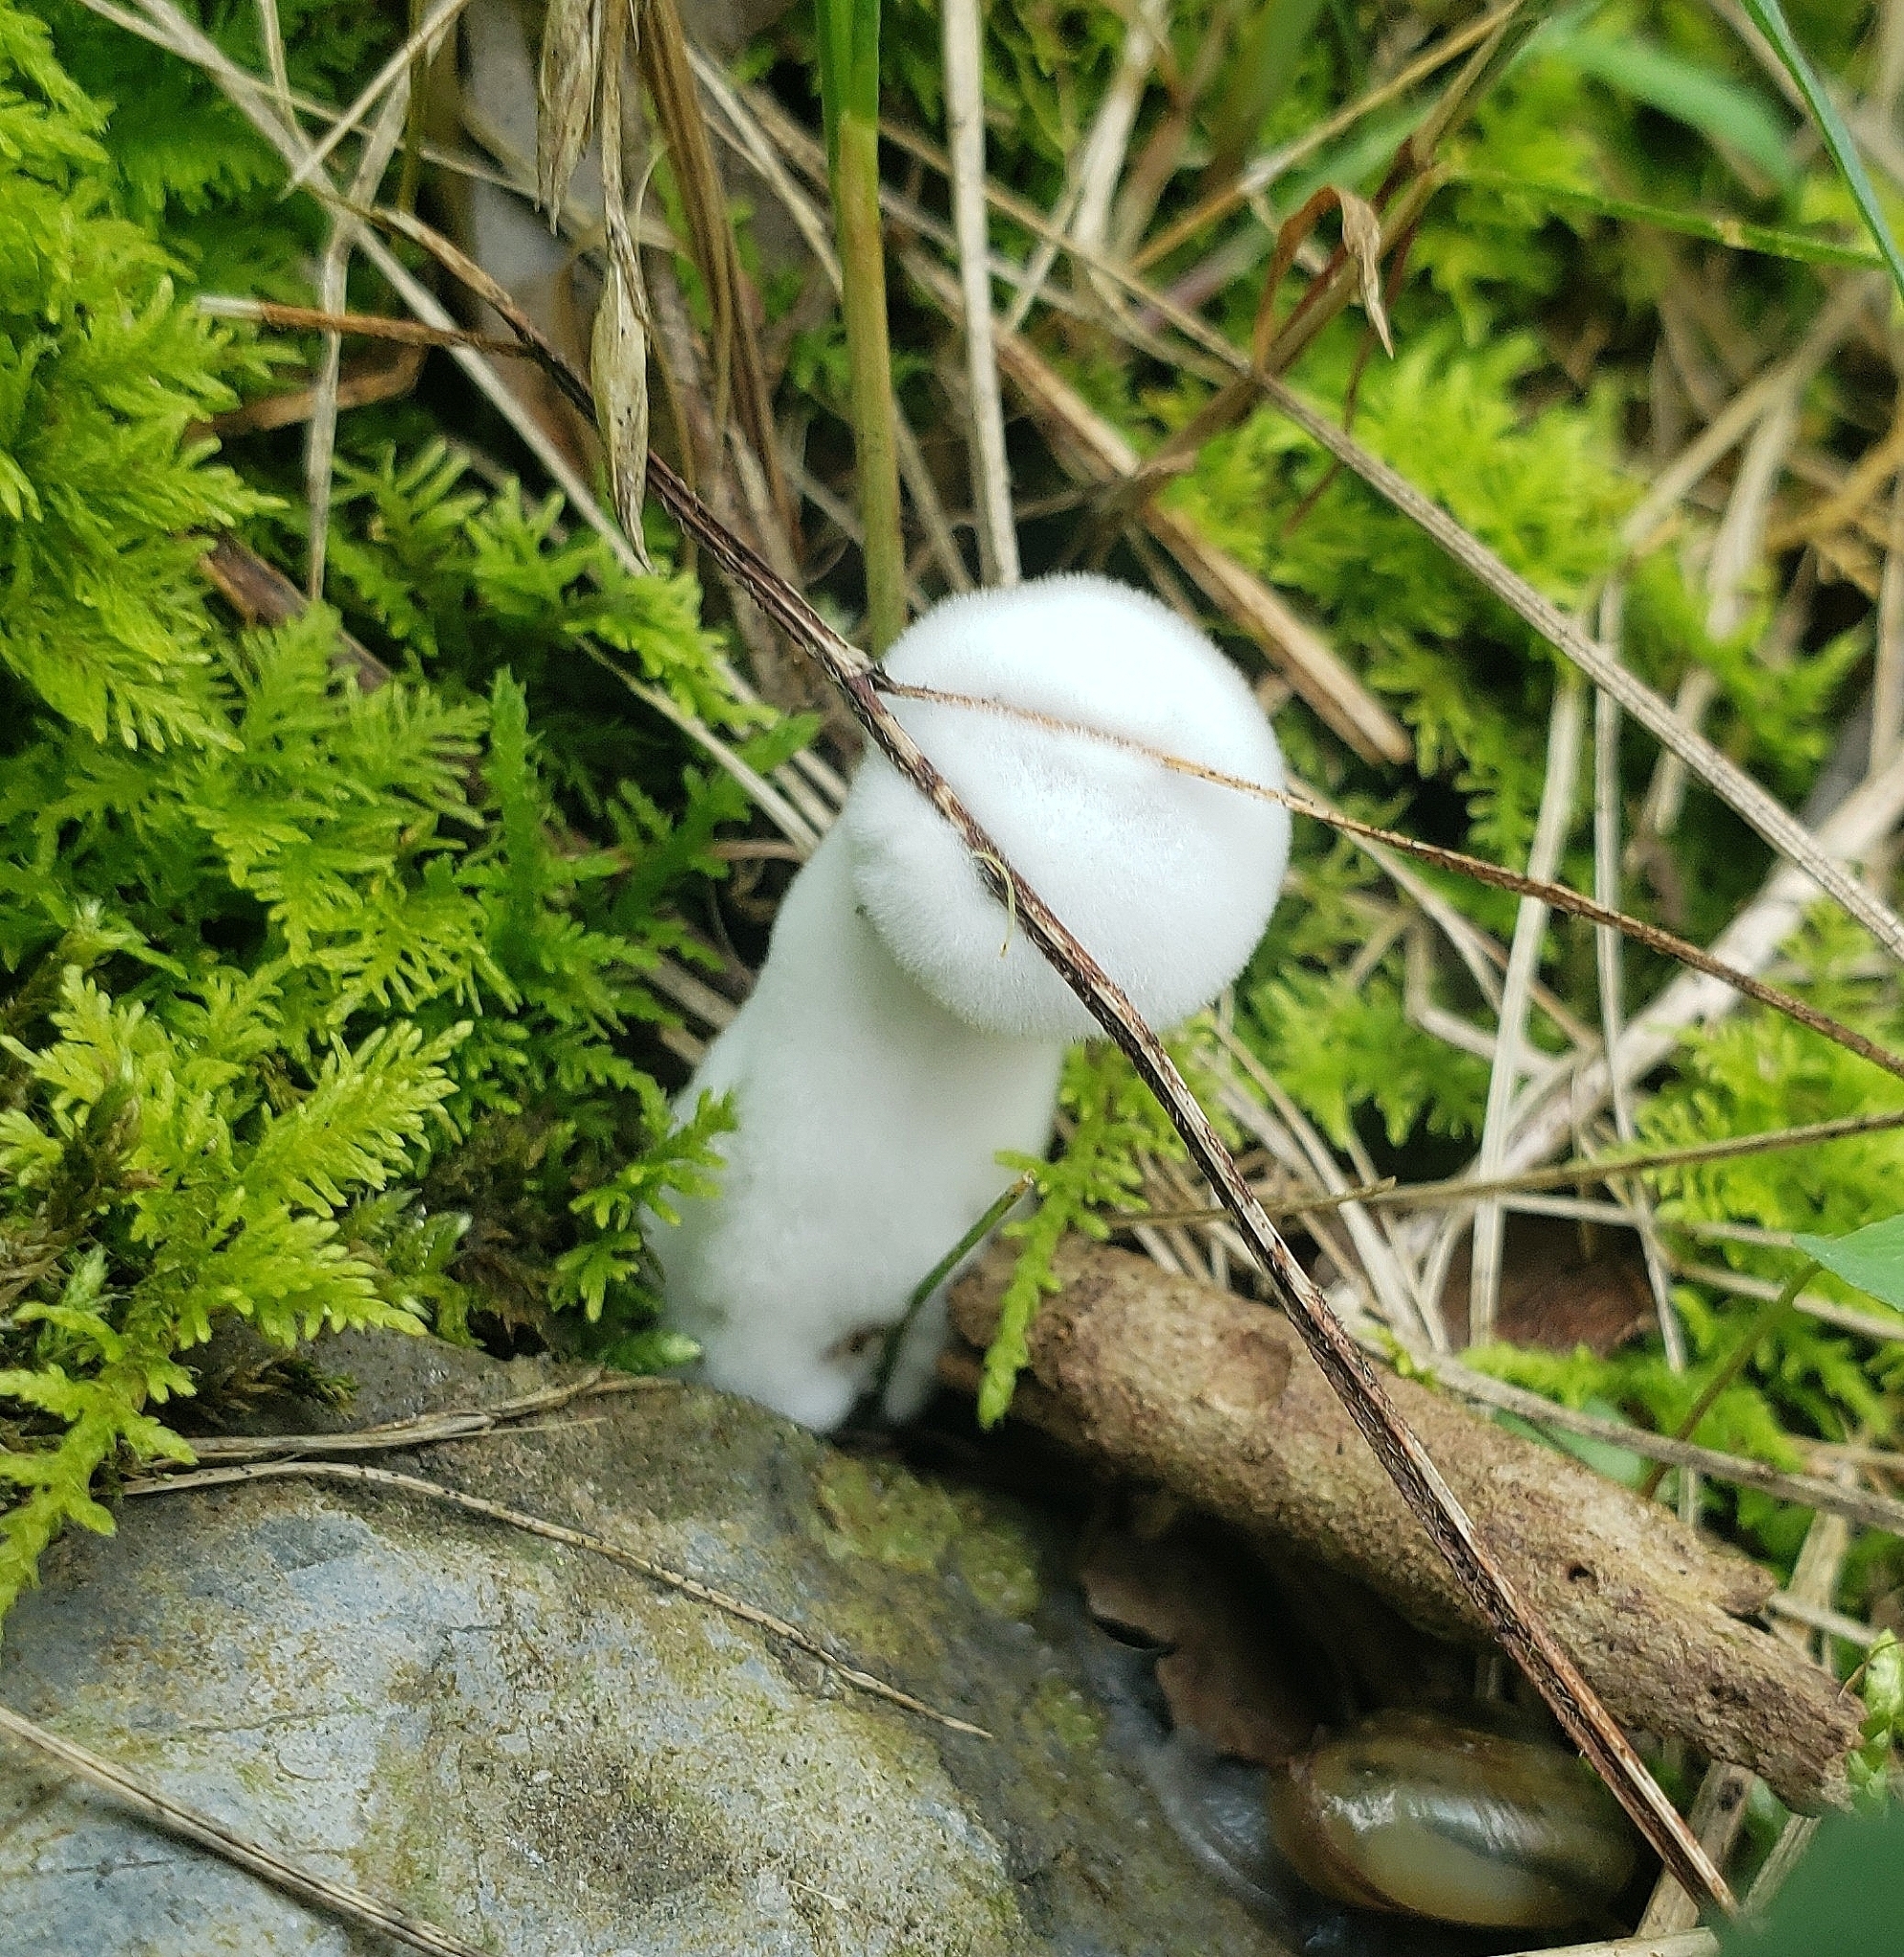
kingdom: Fungi
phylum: Ascomycota
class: Sordariomycetes
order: Hypocreales
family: Hypocreaceae
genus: Hypomyces
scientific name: Hypomyces hyalinus
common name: Amanita mold
